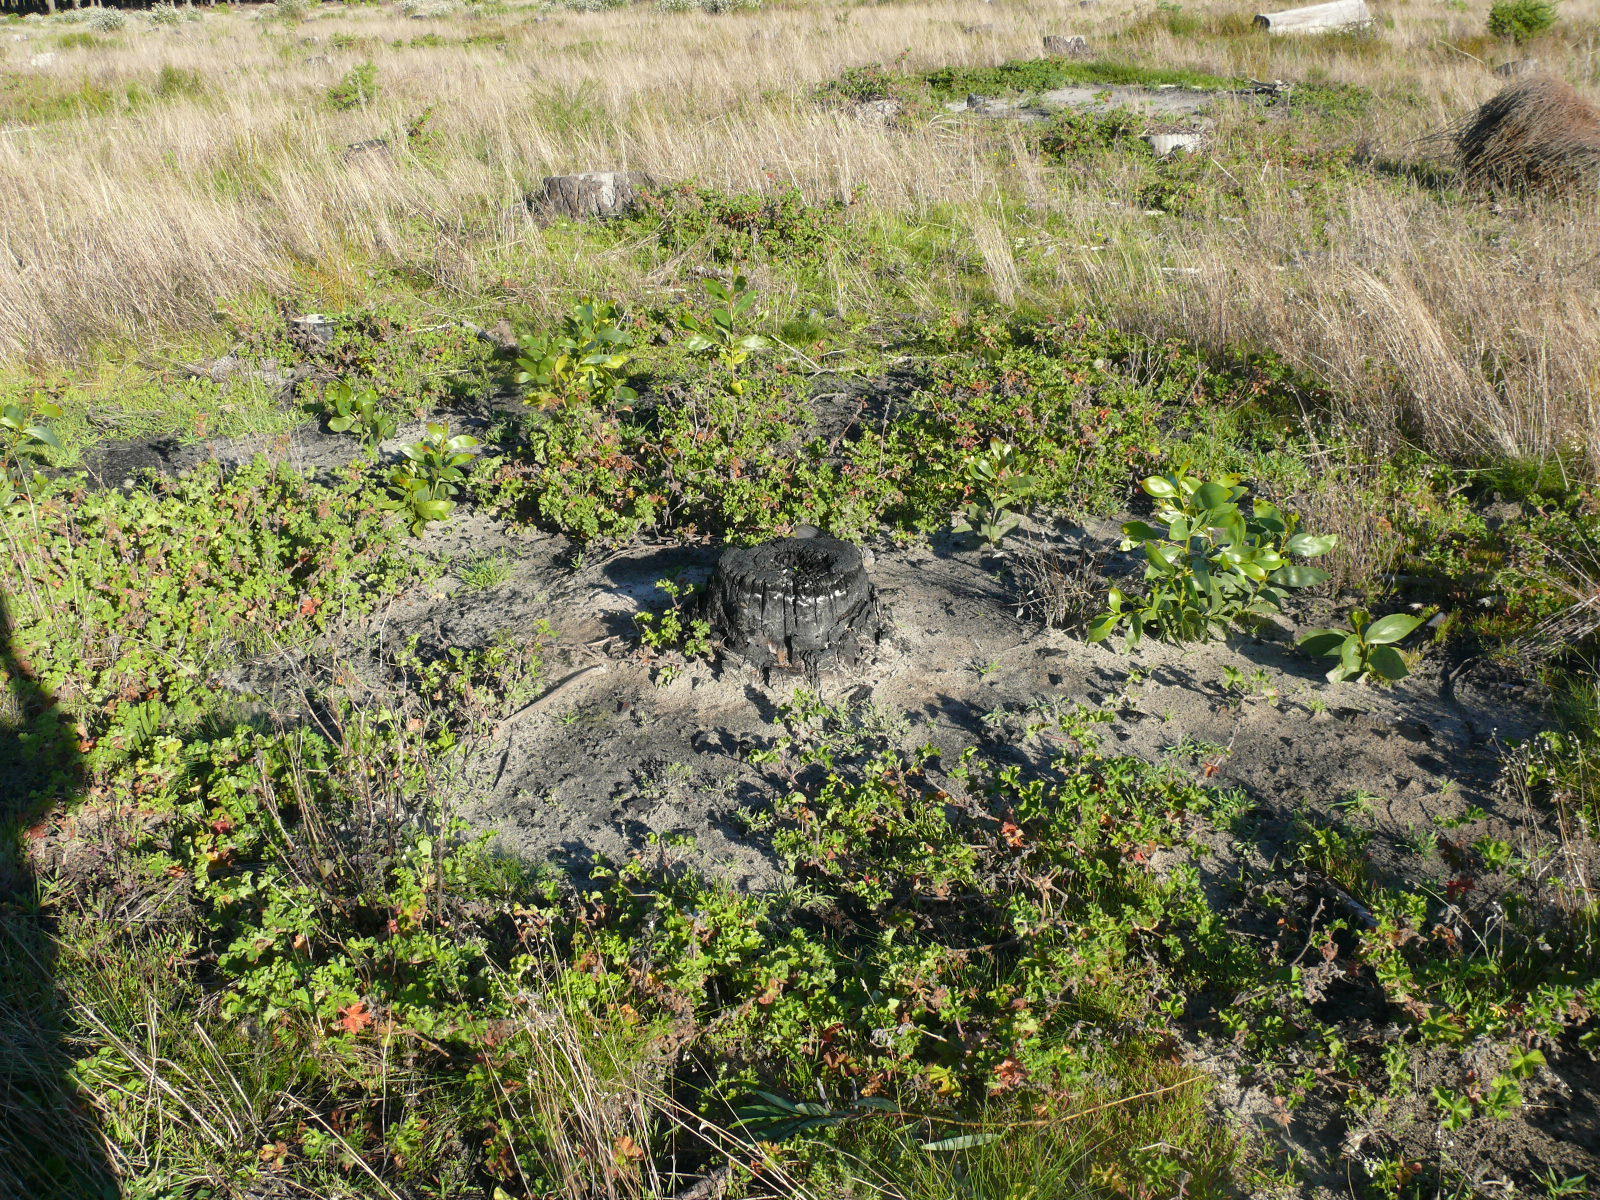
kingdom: Plantae
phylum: Tracheophyta
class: Magnoliopsida
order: Geraniales
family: Geraniaceae
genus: Pelargonium
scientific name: Pelargonium capitatum
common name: Rose scented geranium
